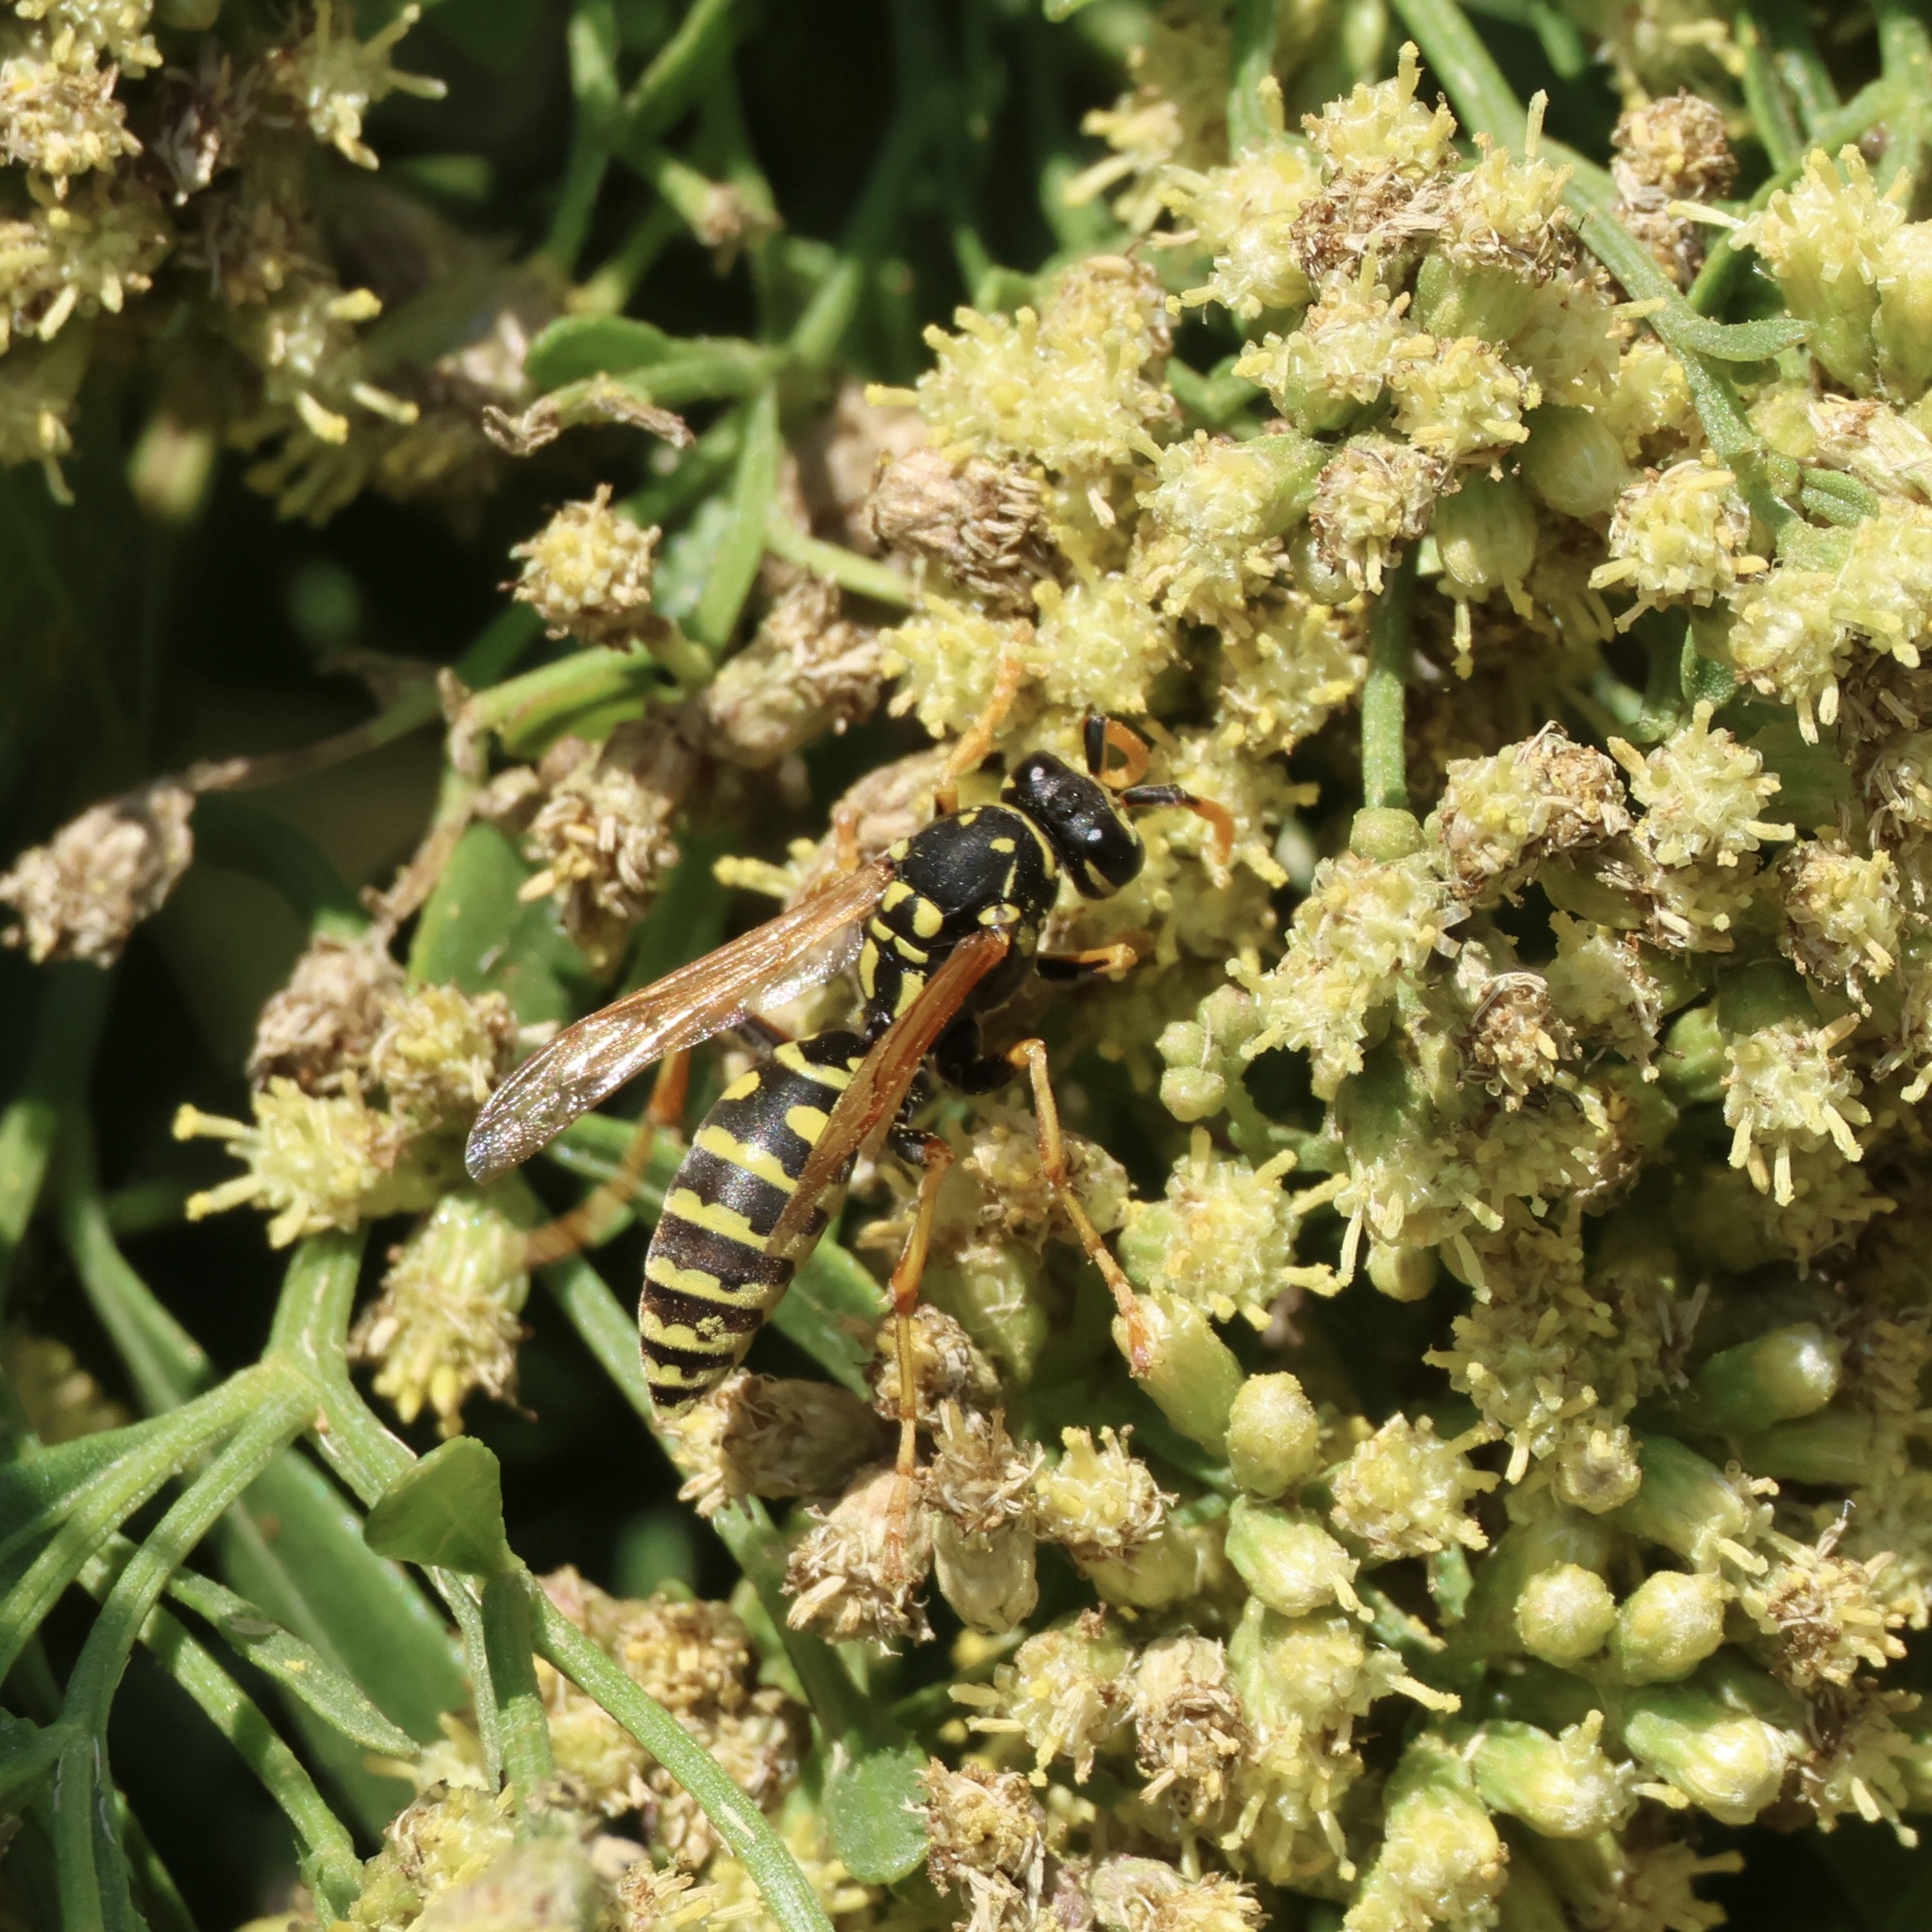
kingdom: Animalia
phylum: Arthropoda
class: Insecta
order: Hymenoptera
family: Eumenidae
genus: Polistes
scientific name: Polistes dominula
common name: Paper wasp
